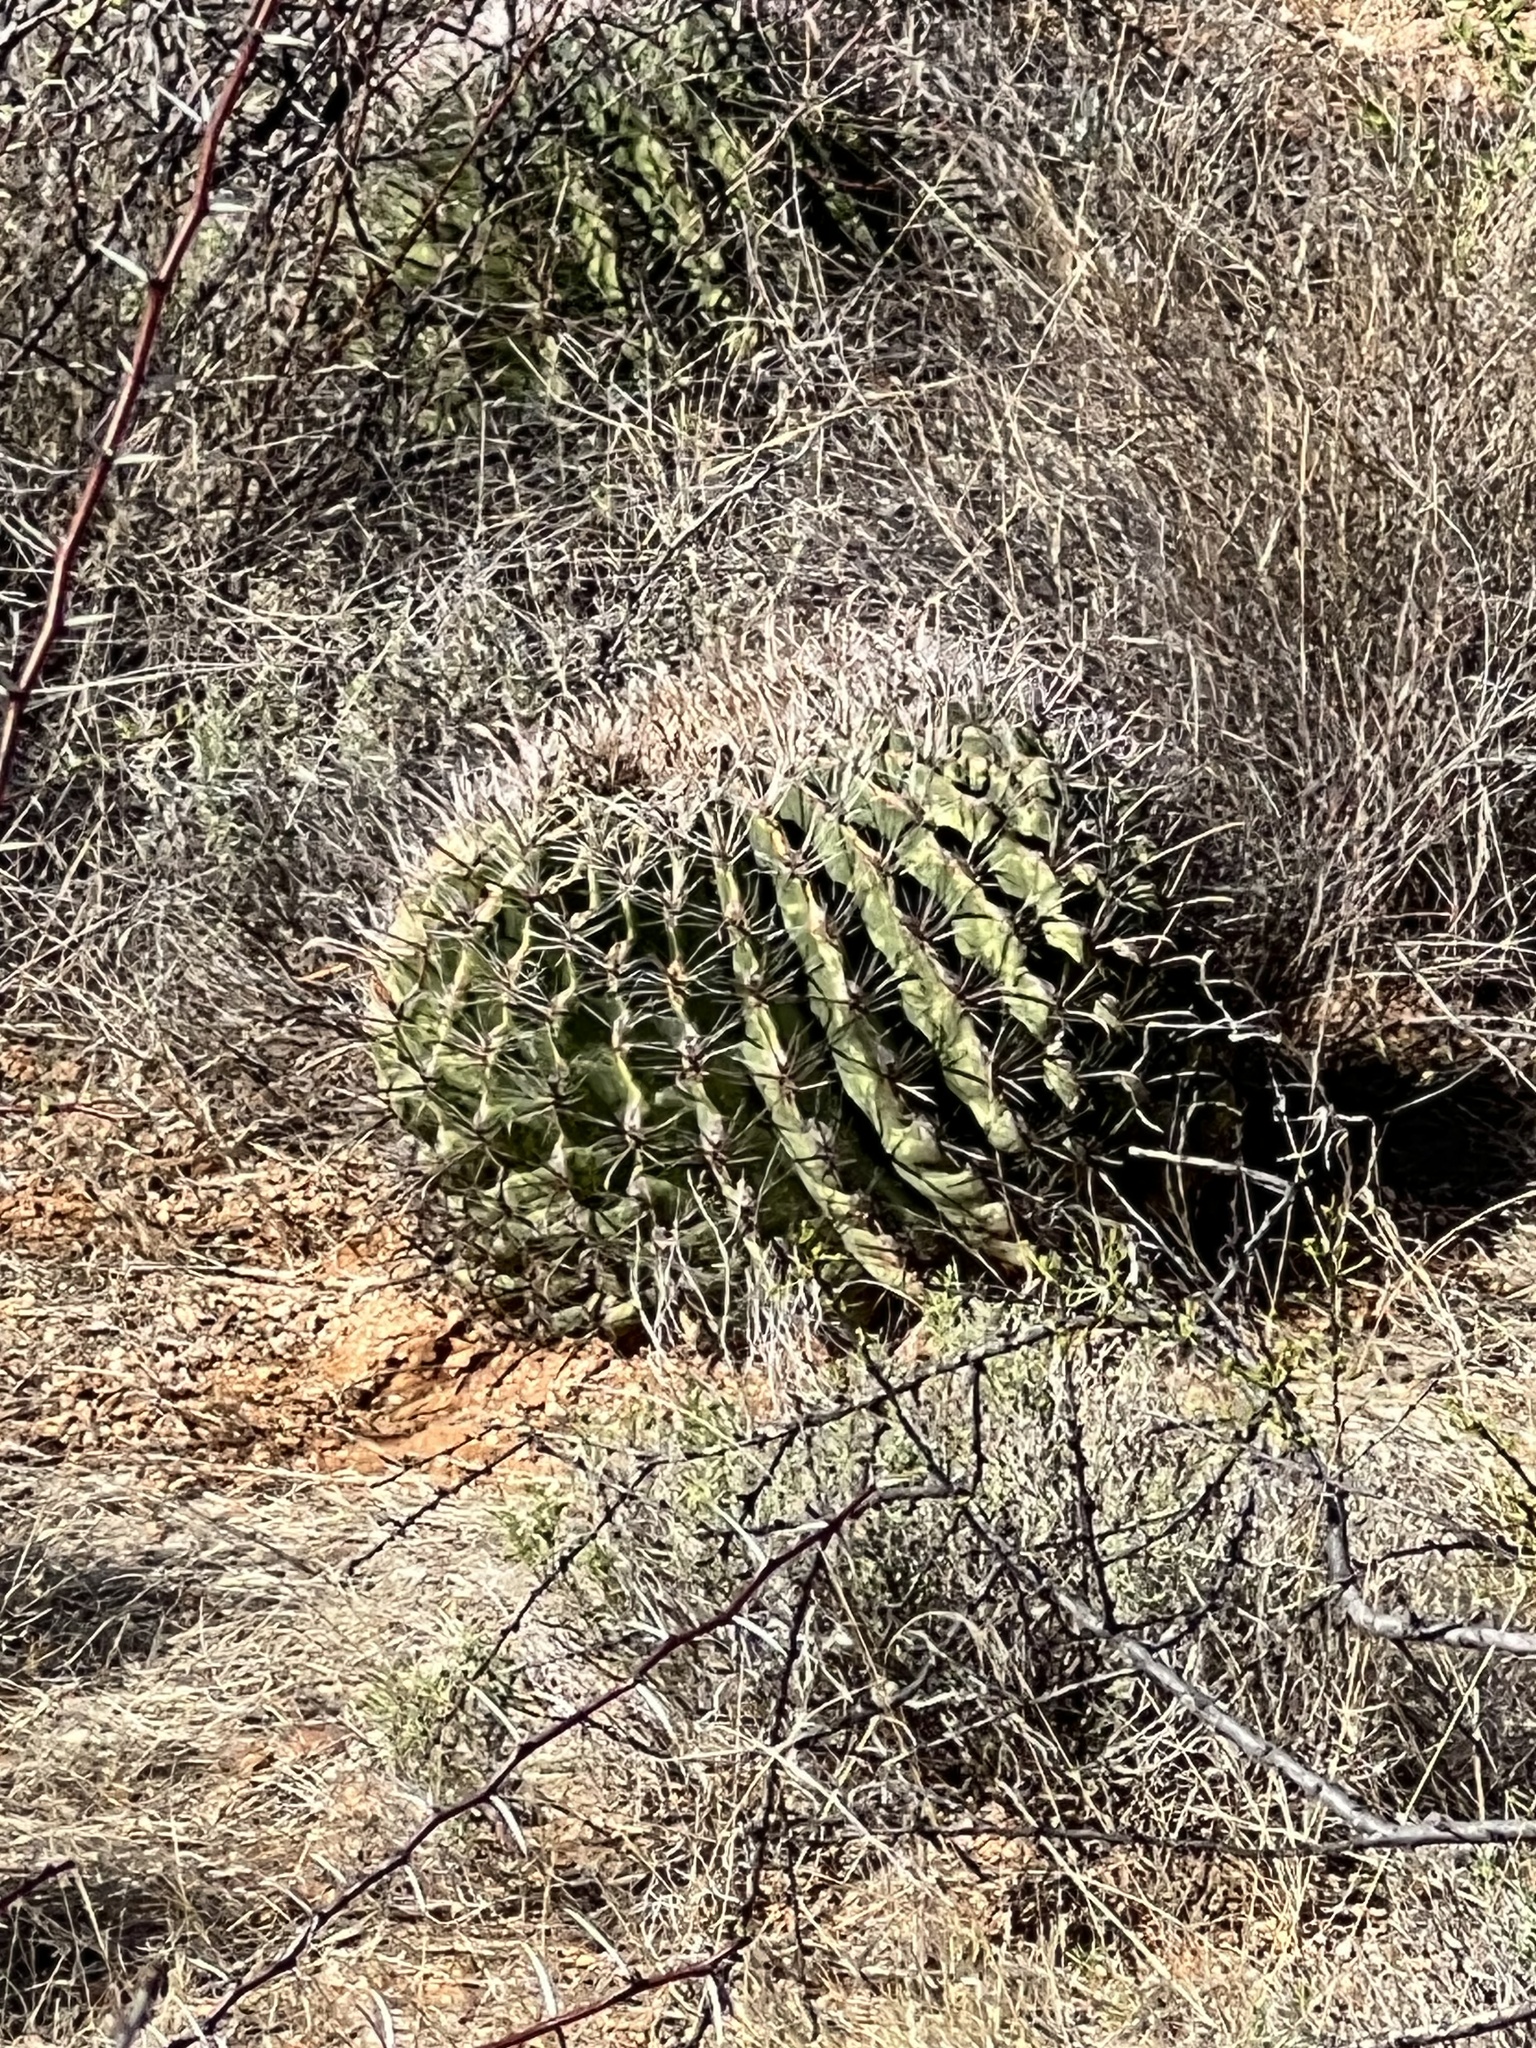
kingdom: Plantae
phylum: Tracheophyta
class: Magnoliopsida
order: Caryophyllales
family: Cactaceae
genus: Ferocactus
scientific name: Ferocactus wislizeni
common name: Candy barrel cactus
